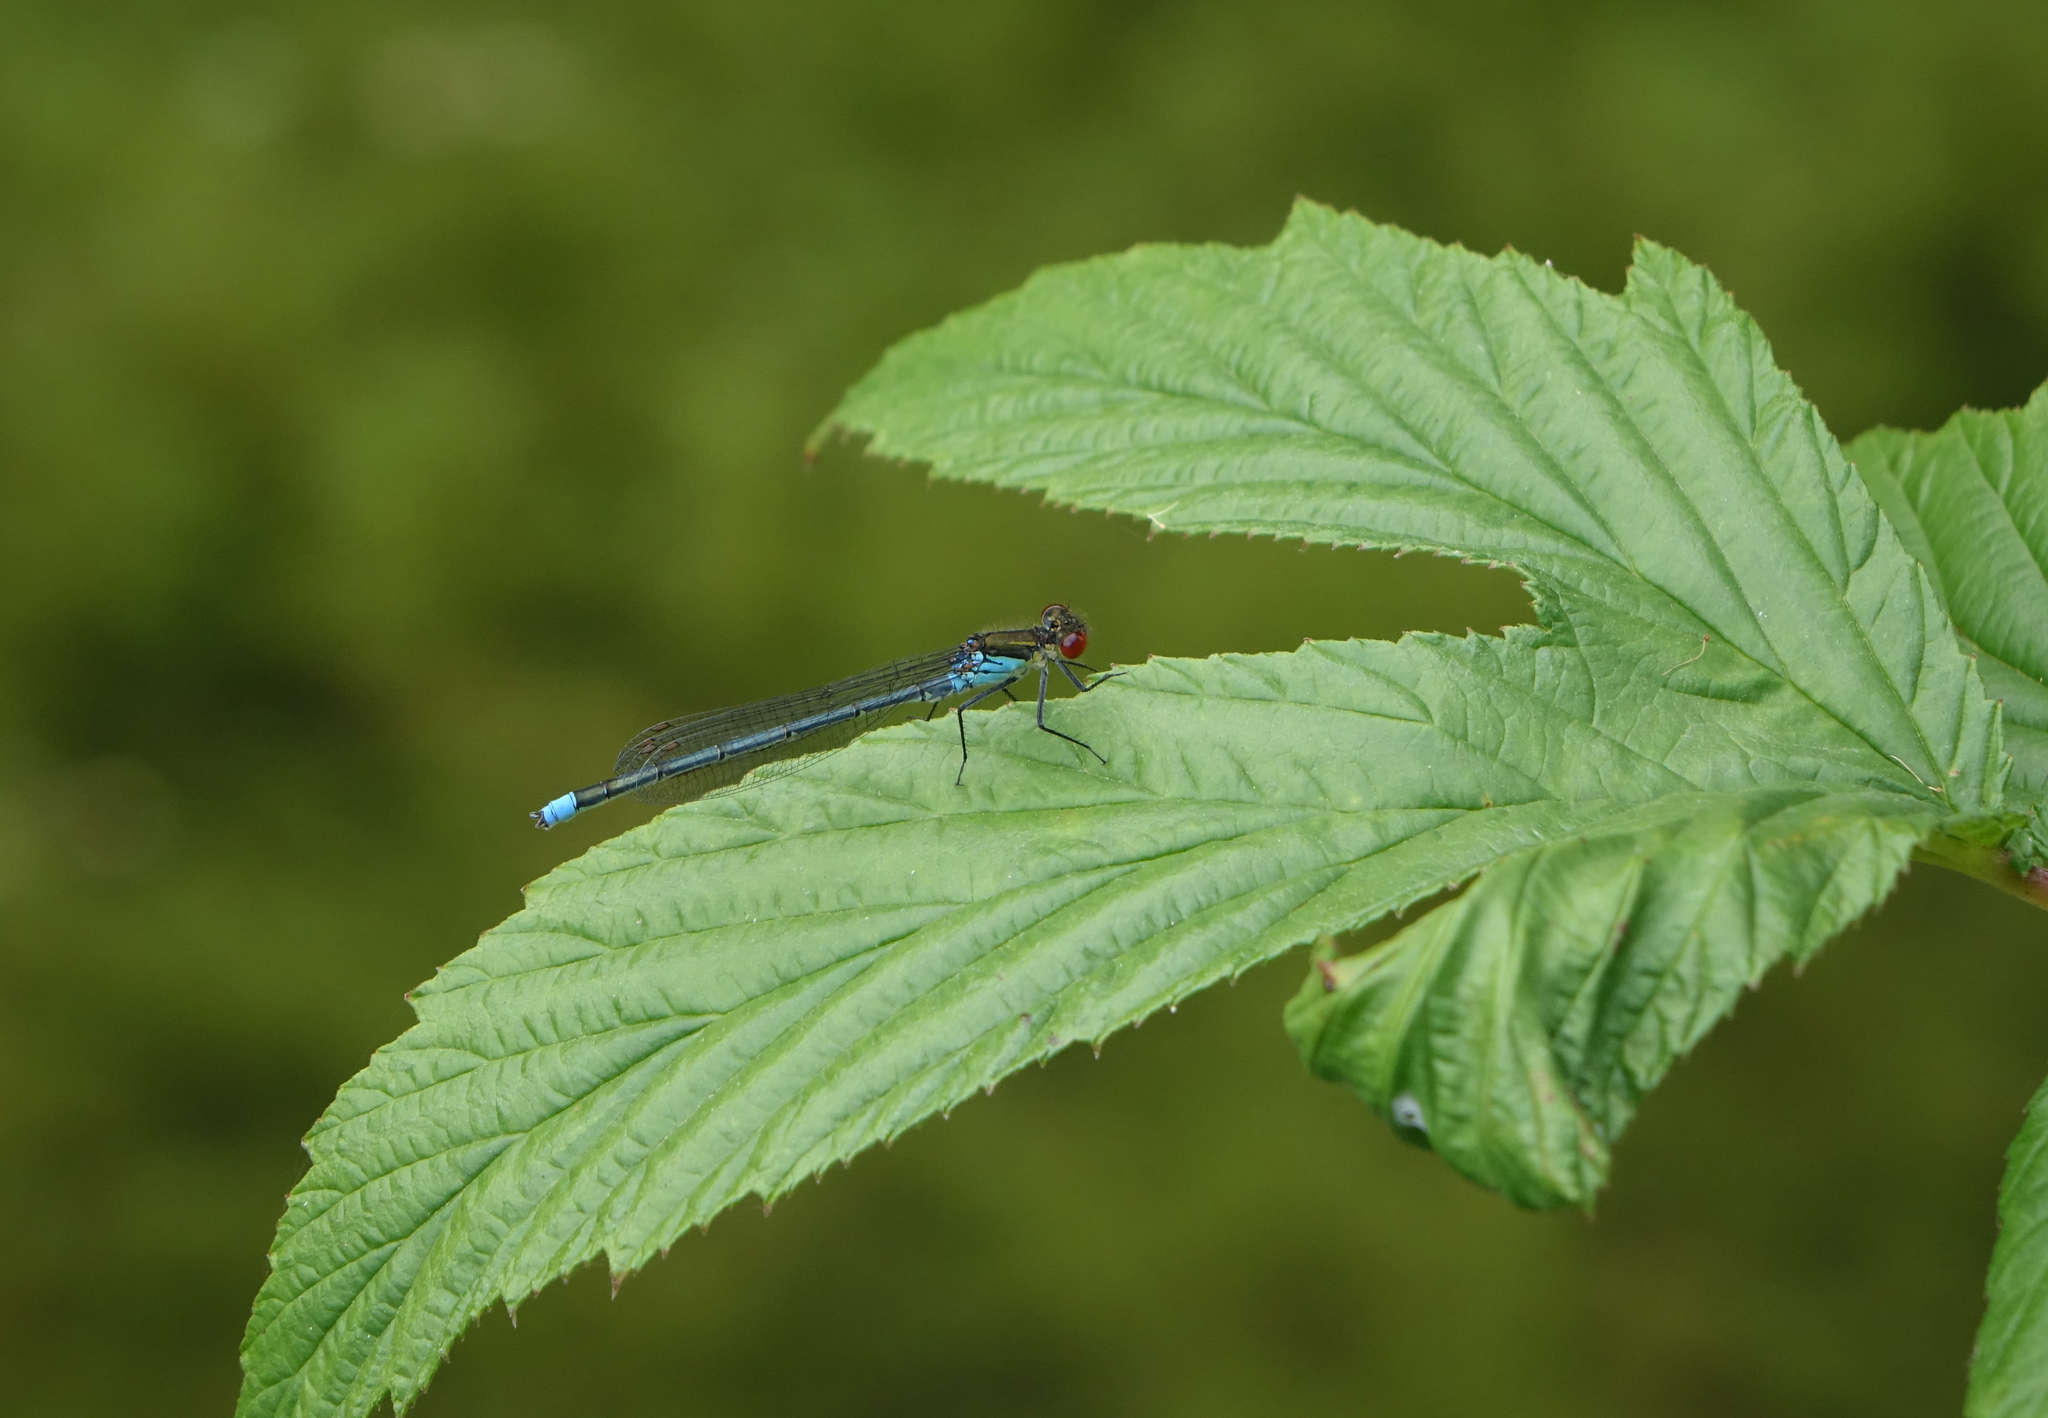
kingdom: Animalia
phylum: Arthropoda
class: Insecta
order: Odonata
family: Coenagrionidae
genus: Erythromma
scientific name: Erythromma najas
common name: Red-eyed damselfly
